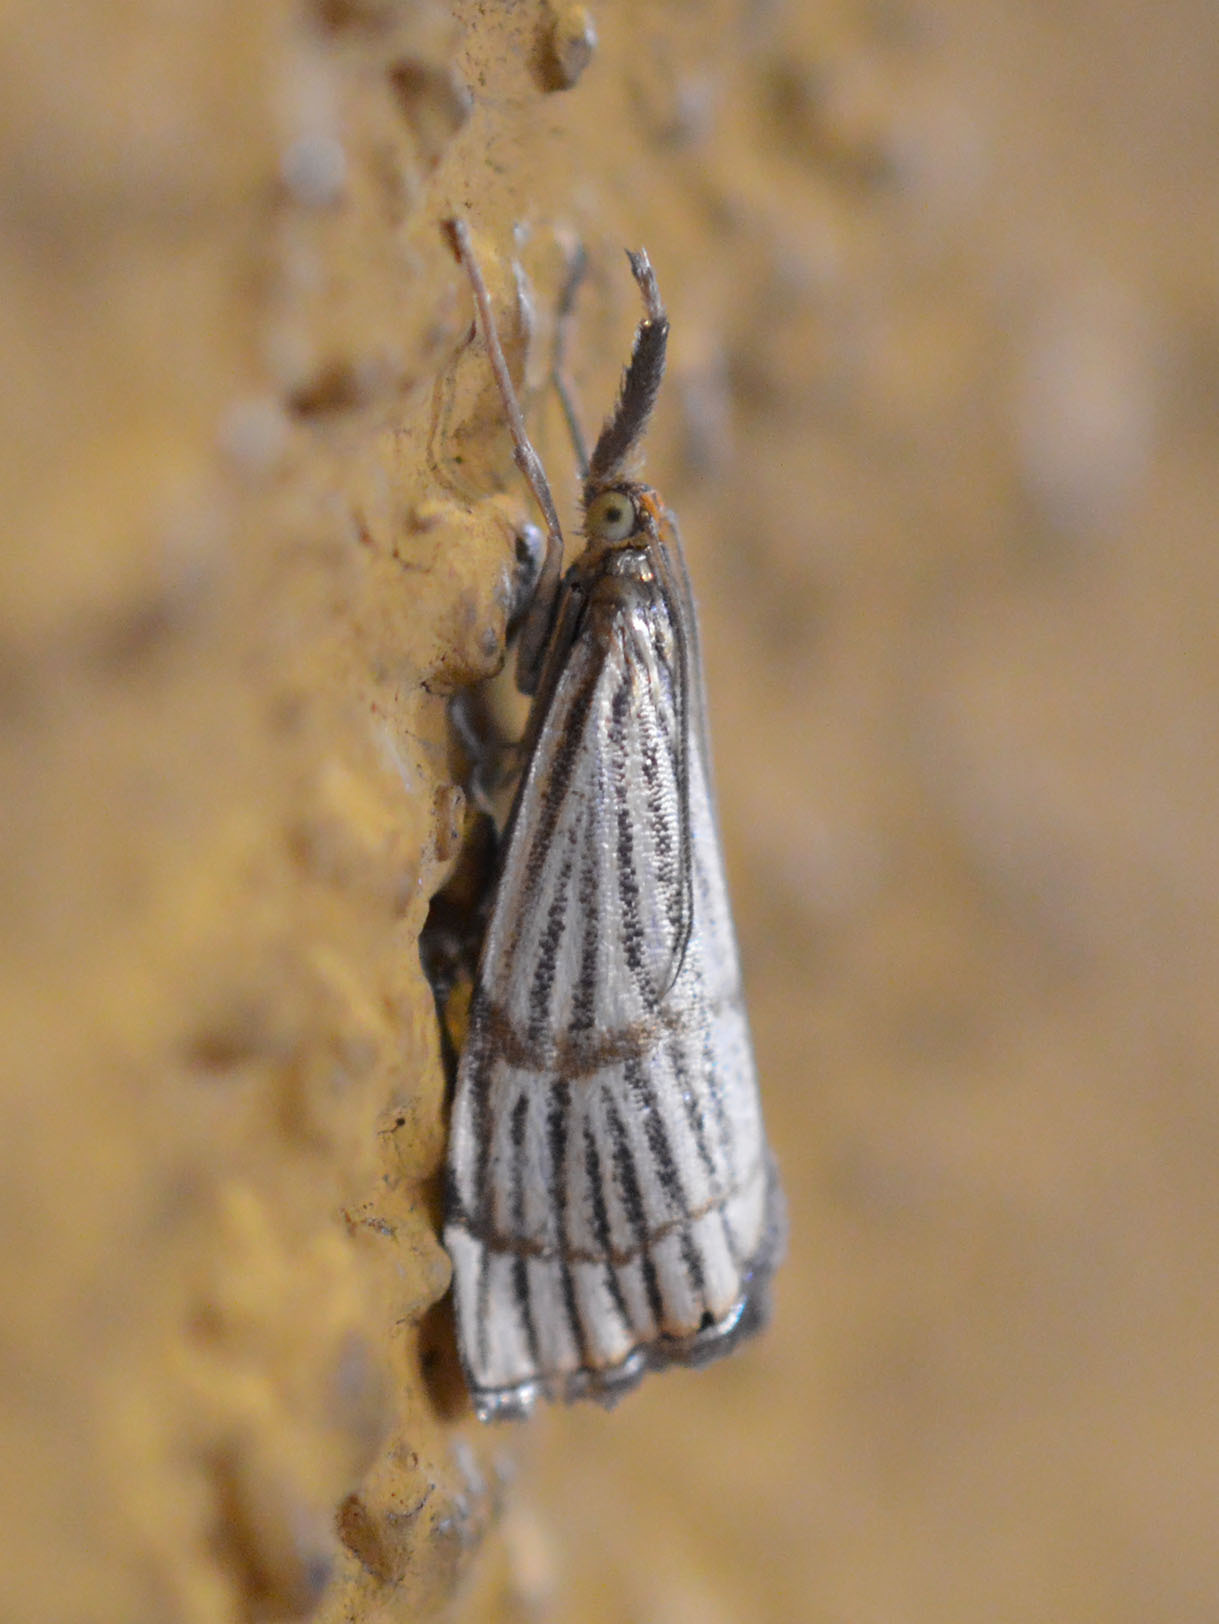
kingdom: Animalia
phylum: Arthropoda
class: Insecta
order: Lepidoptera
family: Crambidae
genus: Chrysocrambus
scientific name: Chrysocrambus linetella
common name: Orange-bar grass-veneer
